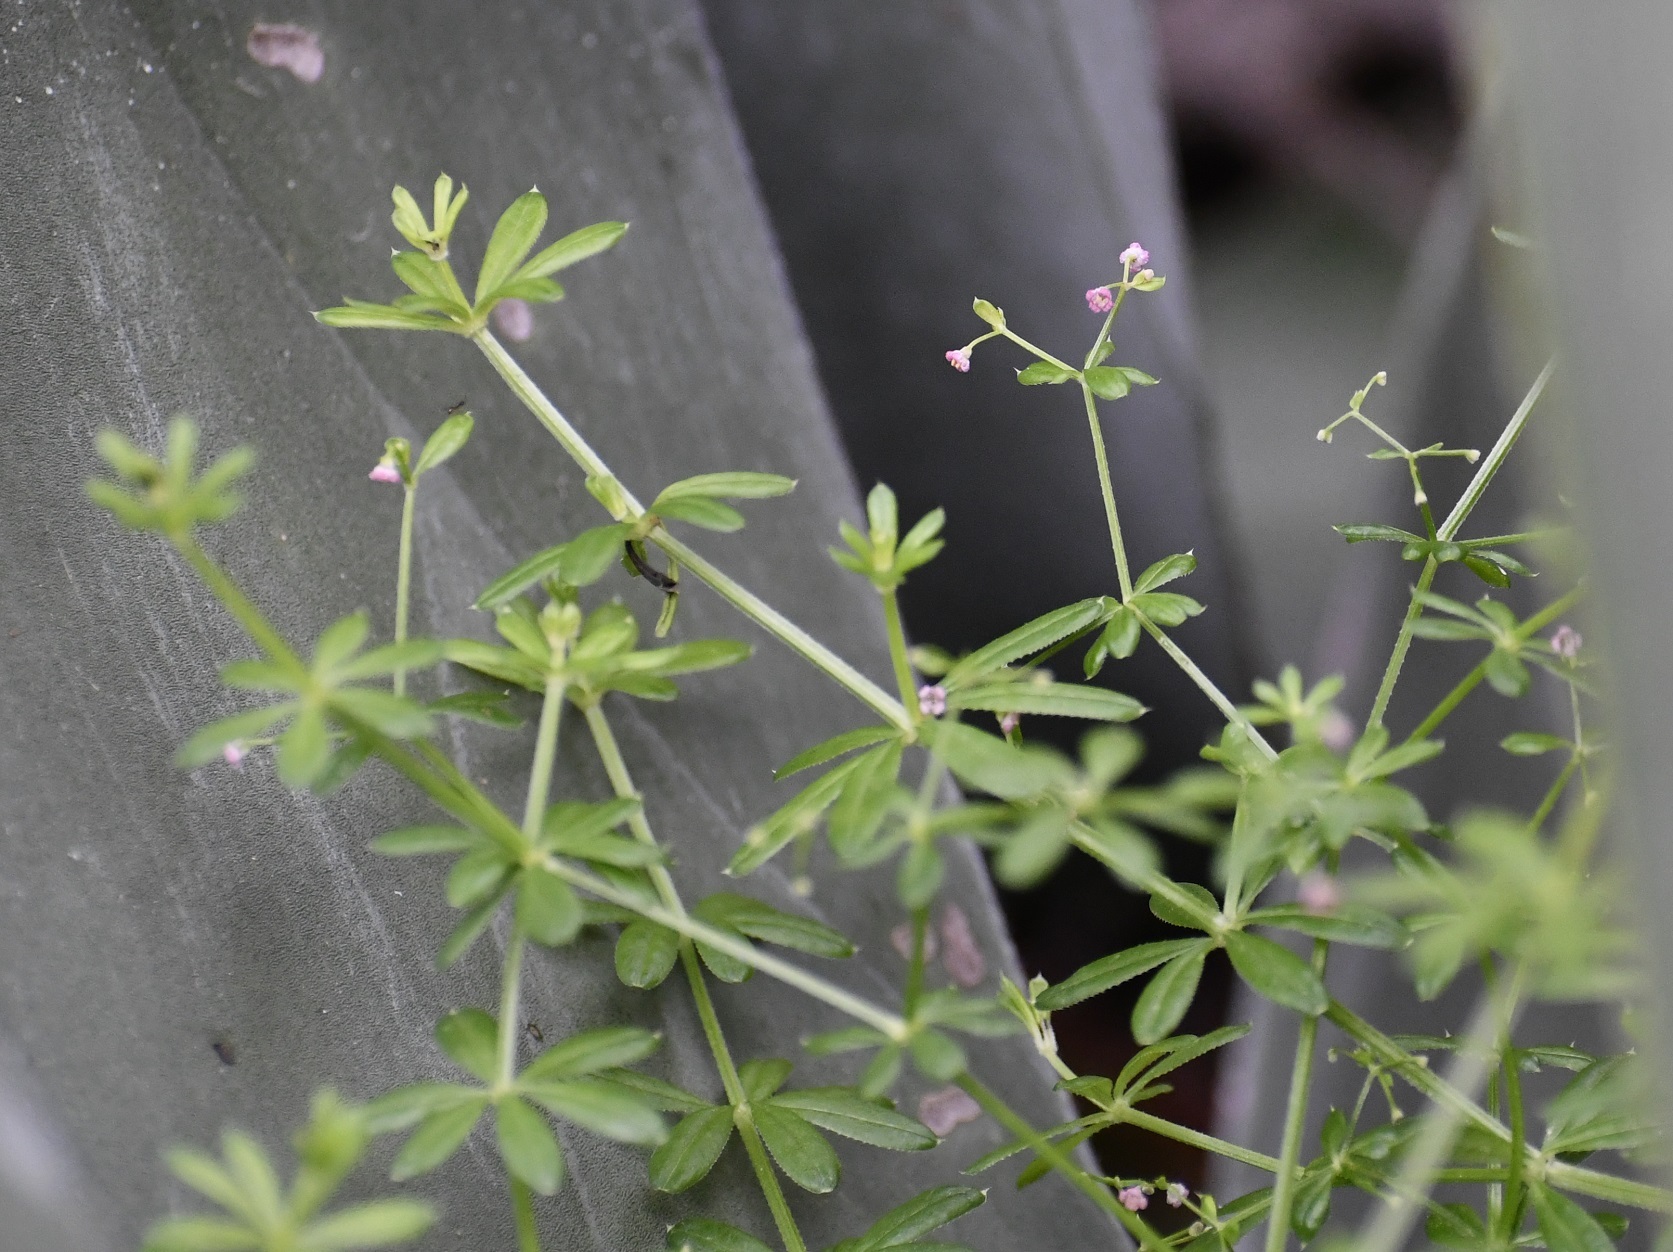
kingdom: Plantae
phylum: Tracheophyta
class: Magnoliopsida
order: Gentianales
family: Rubiaceae
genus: Galium
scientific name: Galium mexicanum
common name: Mexican bedstraw
